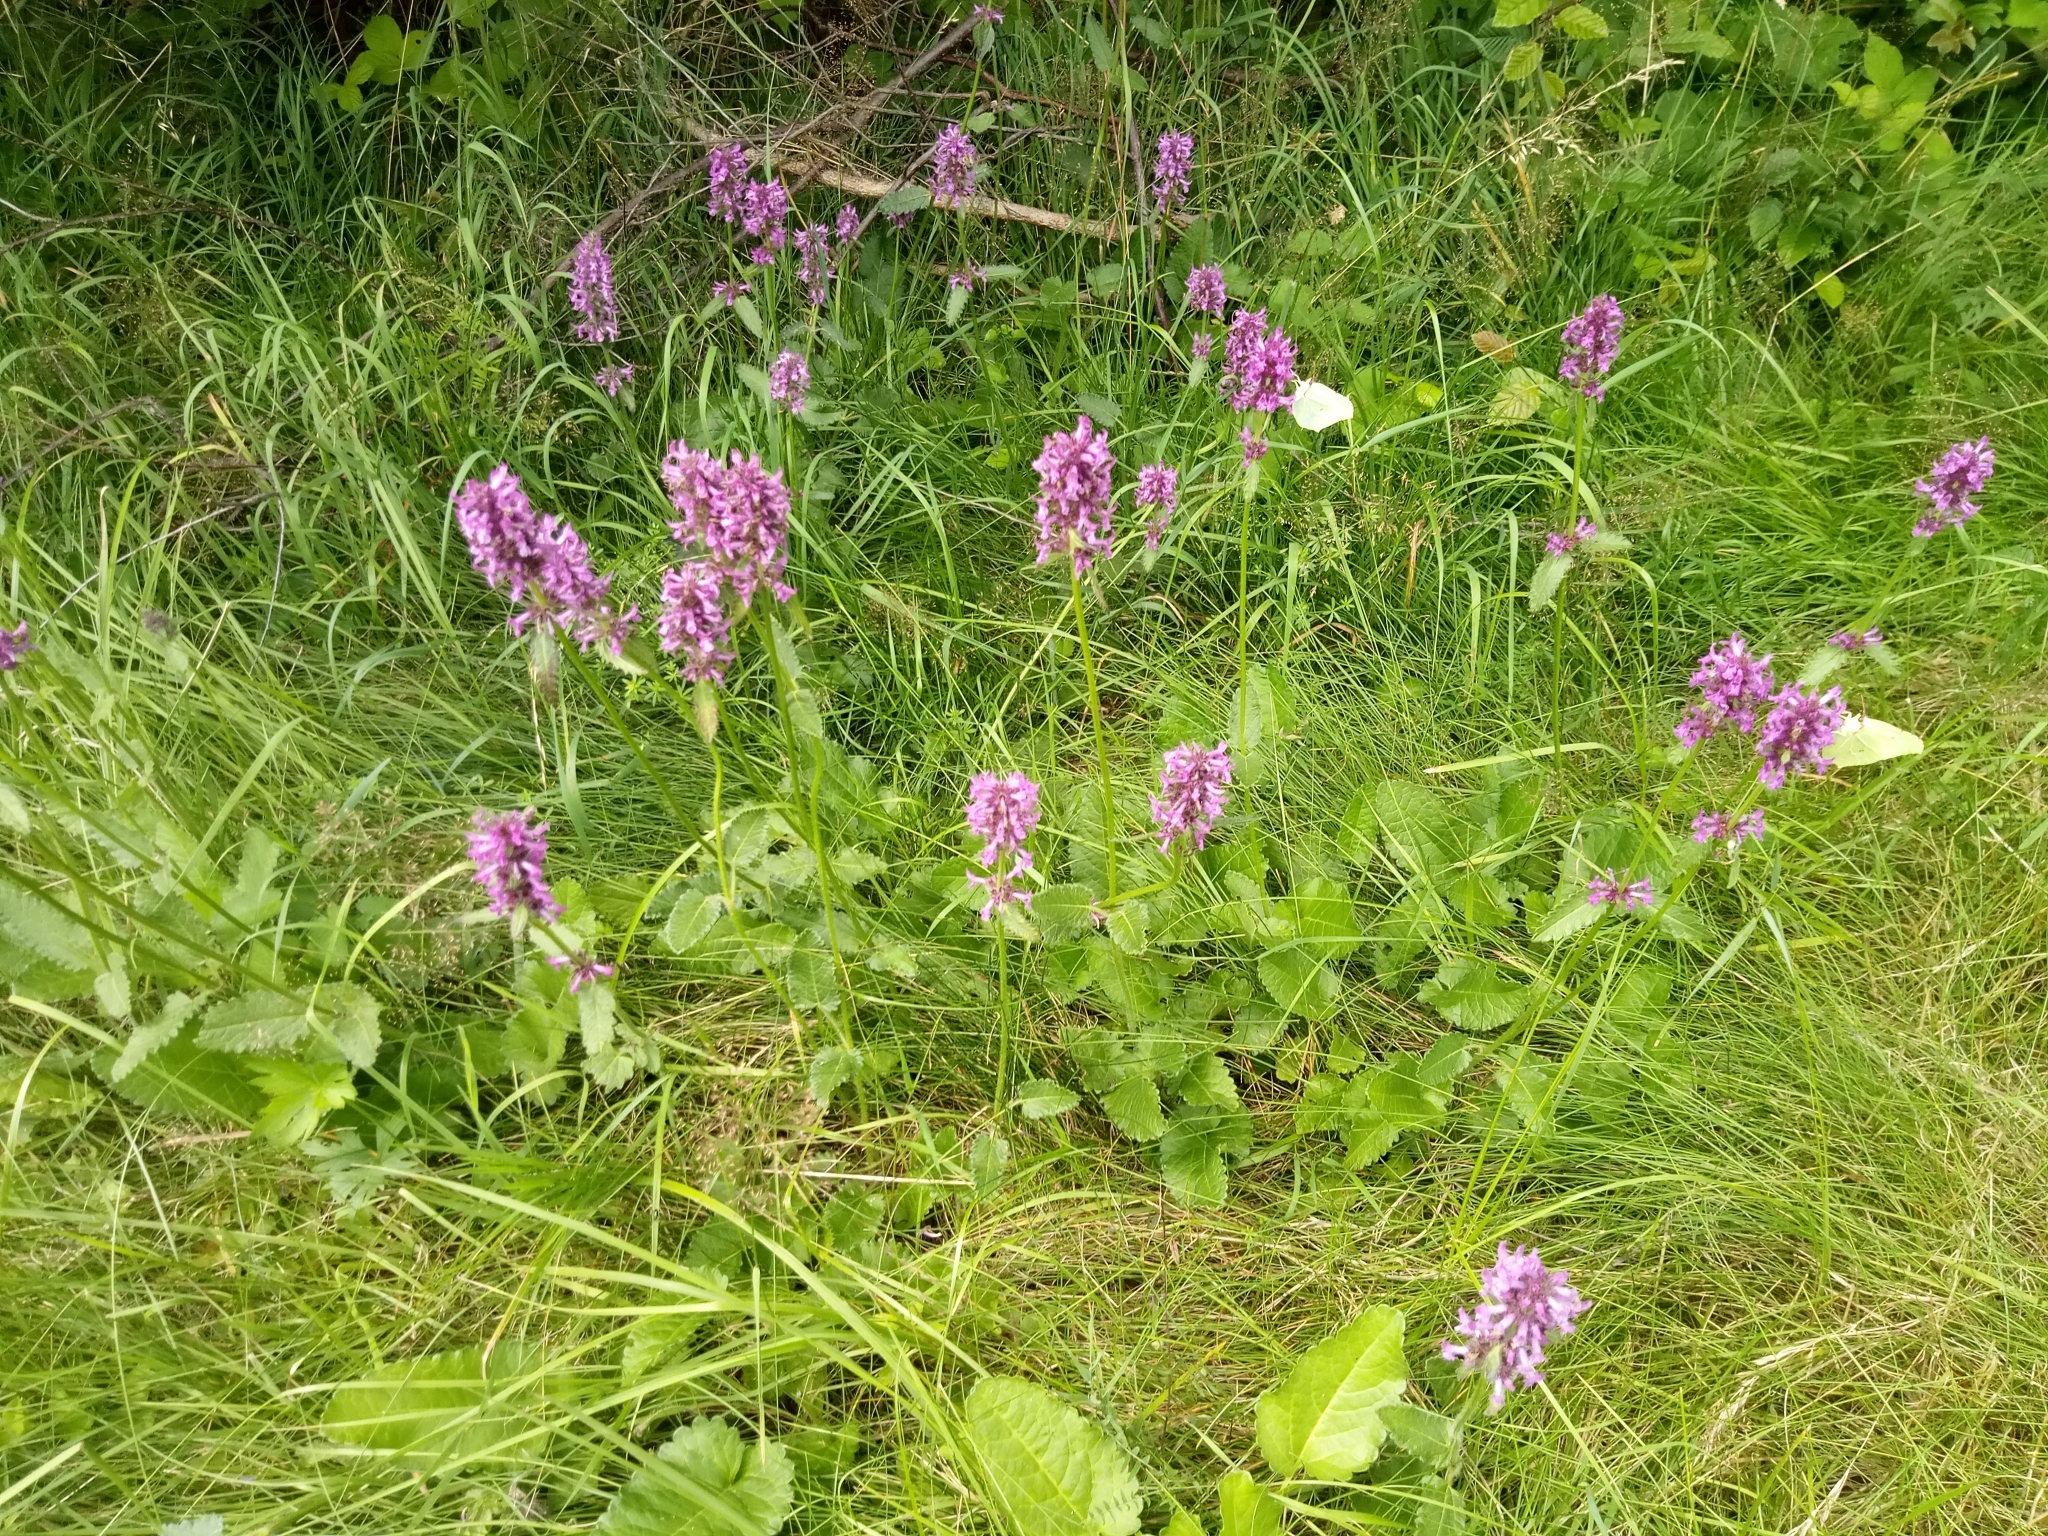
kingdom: Plantae
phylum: Tracheophyta
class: Magnoliopsida
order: Lamiales
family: Lamiaceae
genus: Betonica
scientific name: Betonica officinalis
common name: Bishop's-wort
